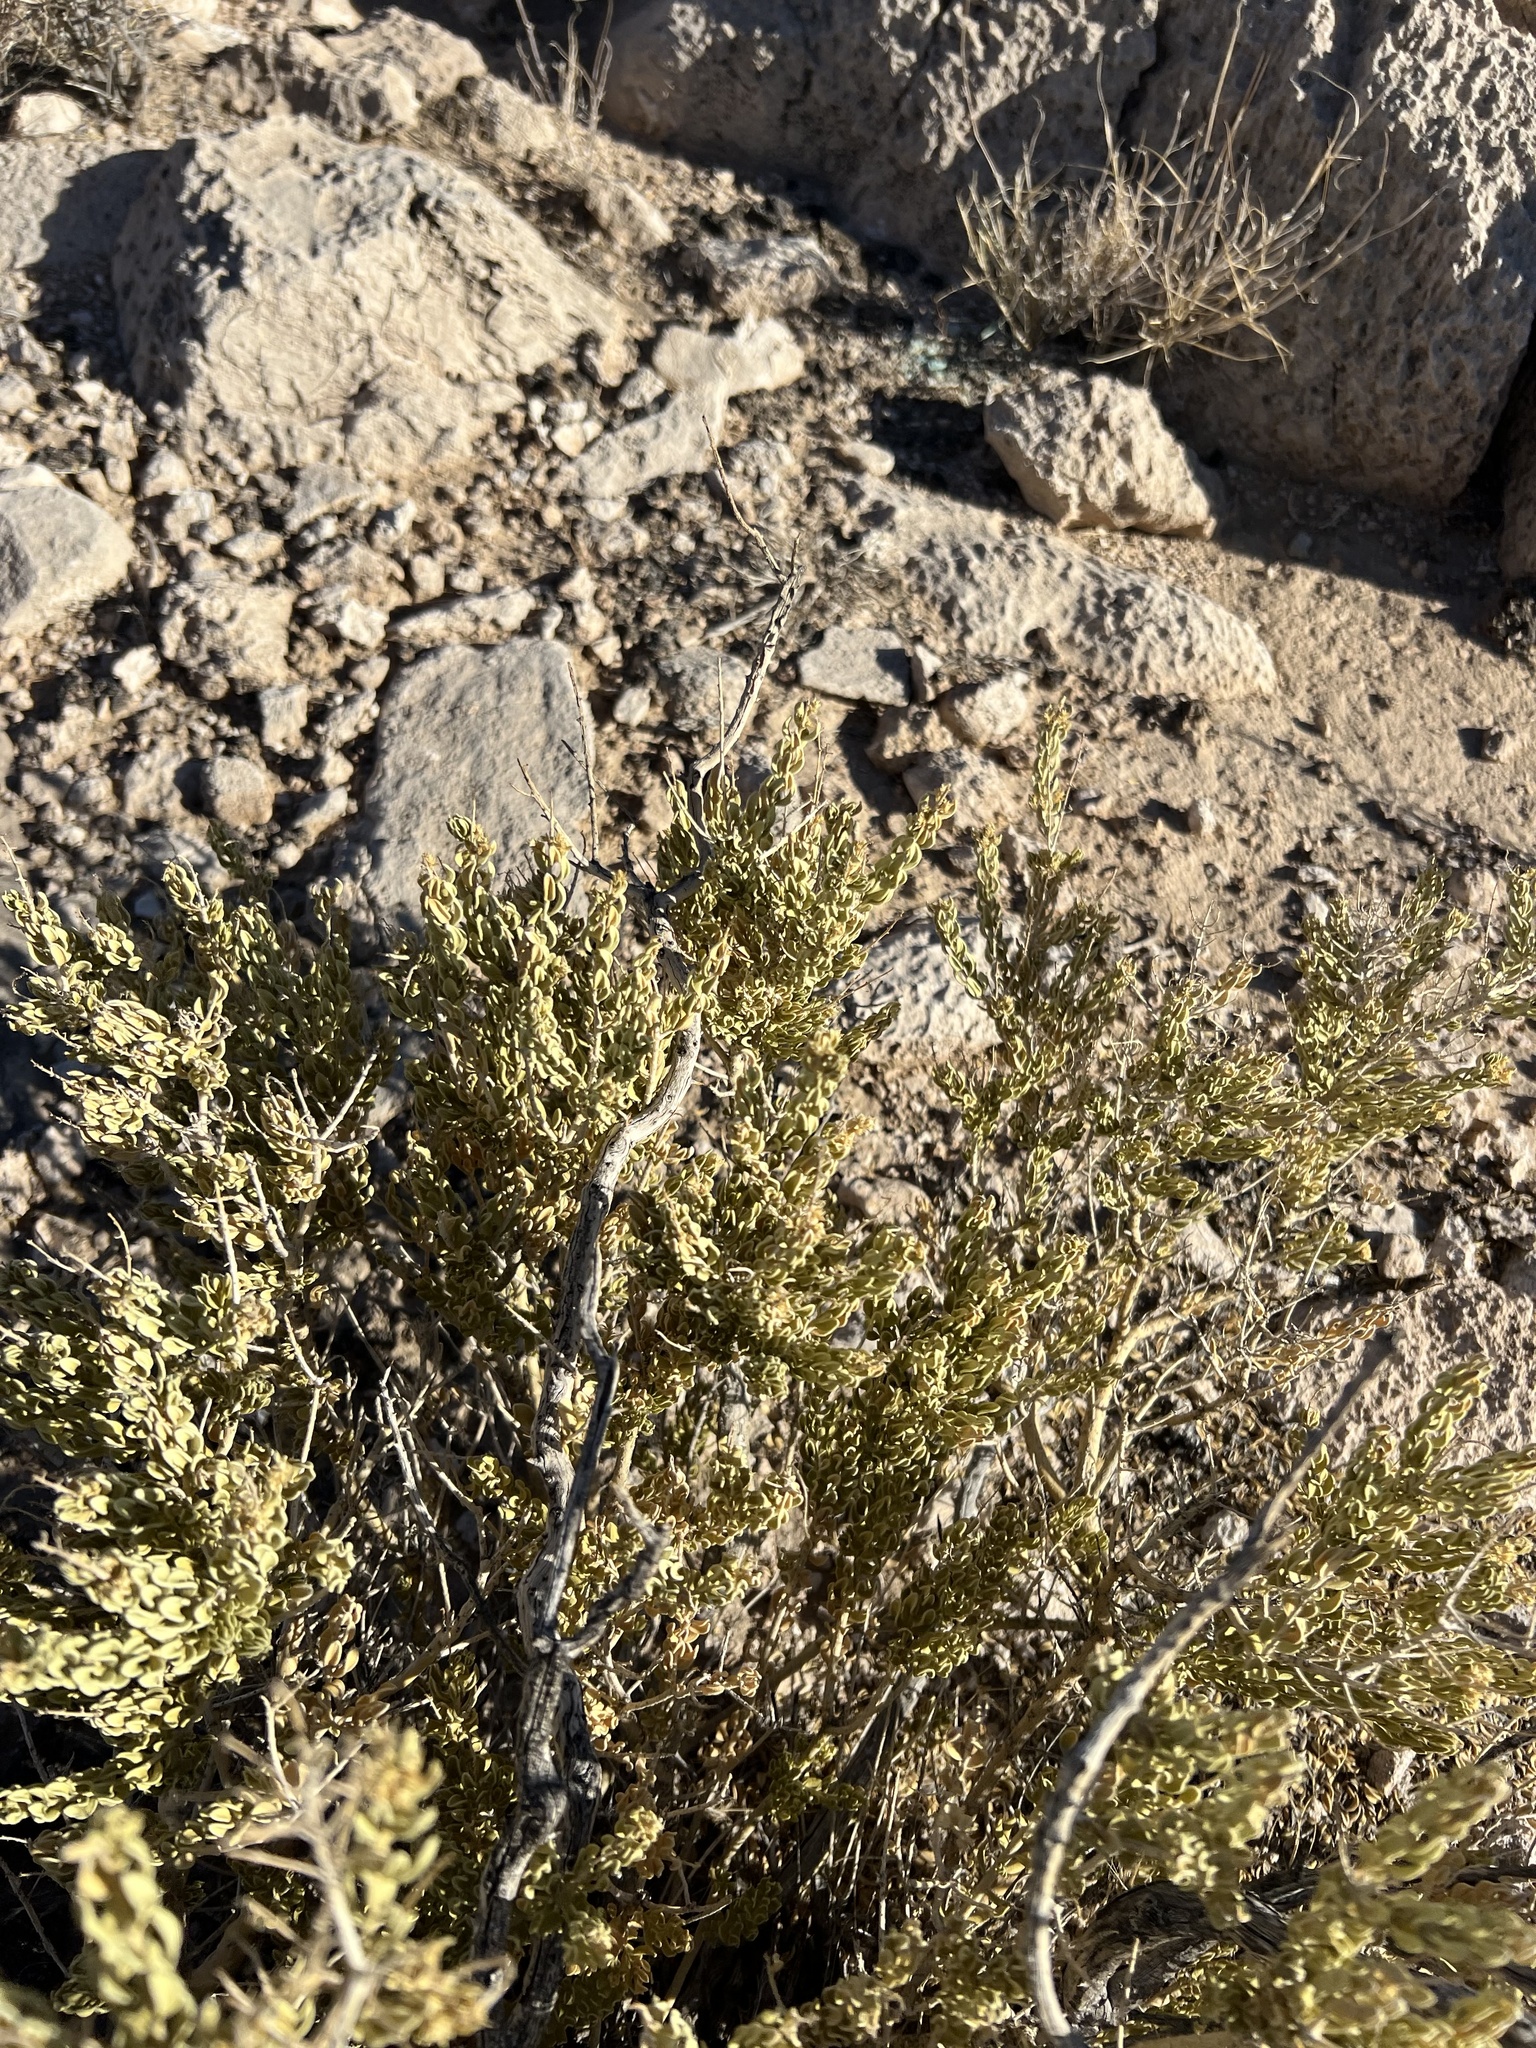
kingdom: Plantae
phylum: Tracheophyta
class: Magnoliopsida
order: Celastrales
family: Celastraceae
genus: Mortonia
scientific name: Mortonia utahensis
